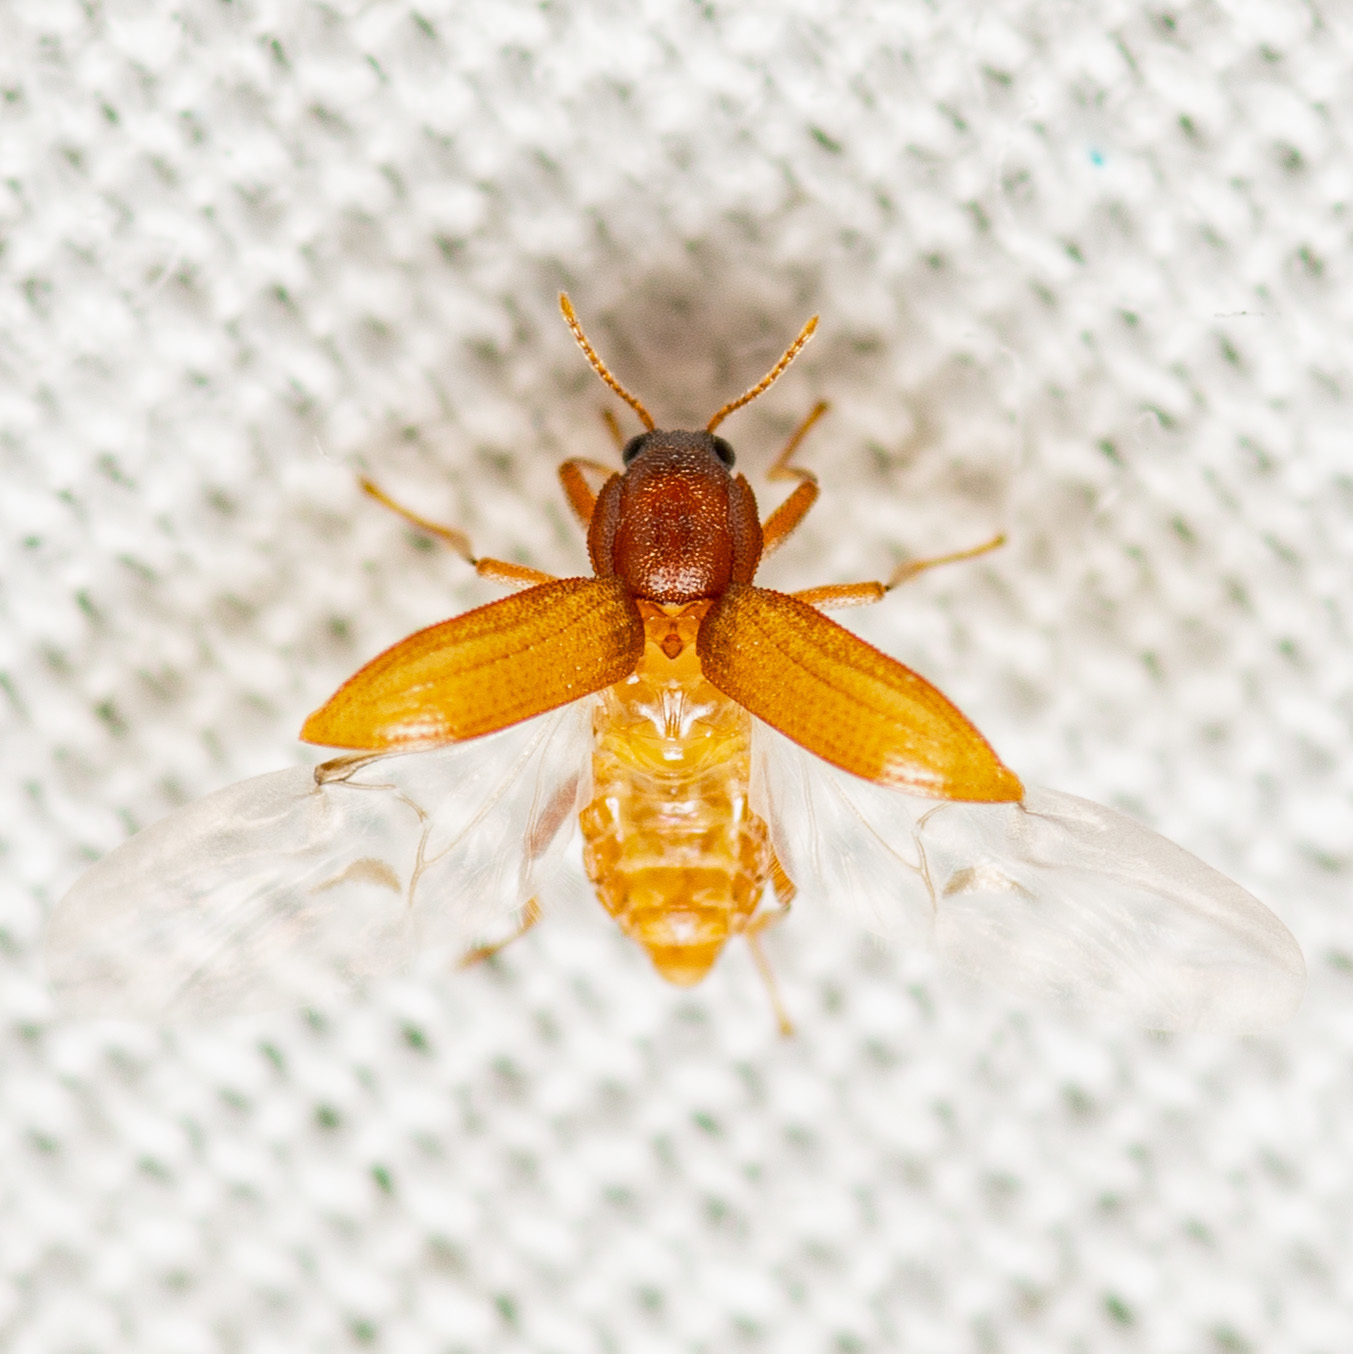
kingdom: Animalia
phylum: Arthropoda
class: Insecta
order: Coleoptera
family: Elmidae
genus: Hexacylloepus
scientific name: Hexacylloepus ferrugineus
